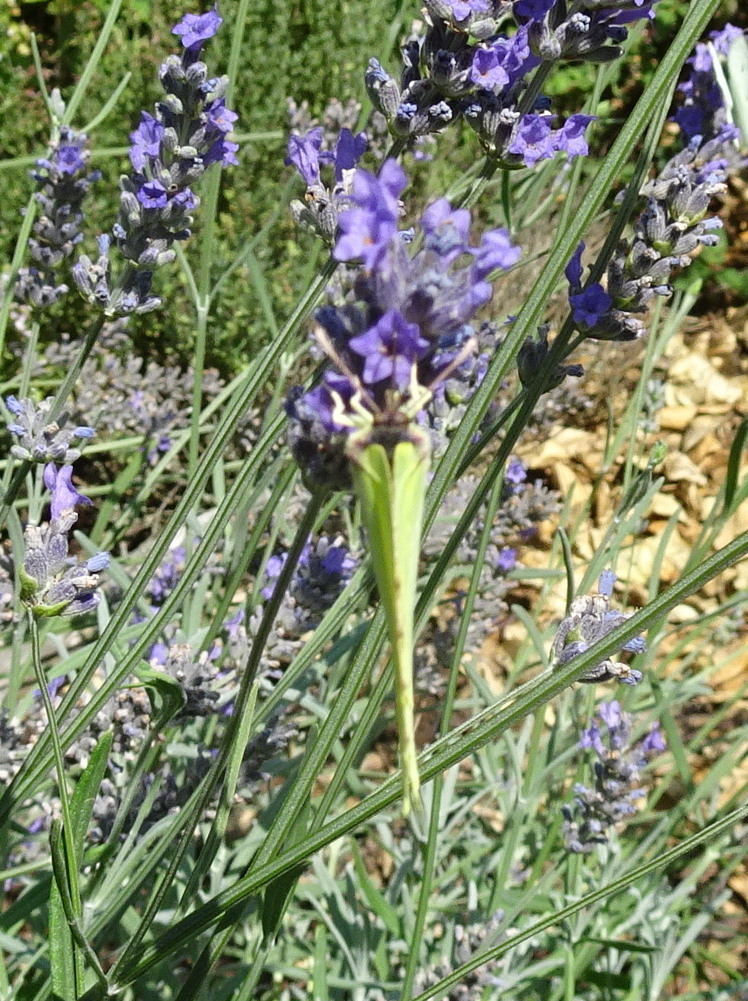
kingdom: Animalia
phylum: Arthropoda
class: Insecta
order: Lepidoptera
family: Pieridae
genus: Gonepteryx
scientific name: Gonepteryx rhamni
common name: Brimstone
